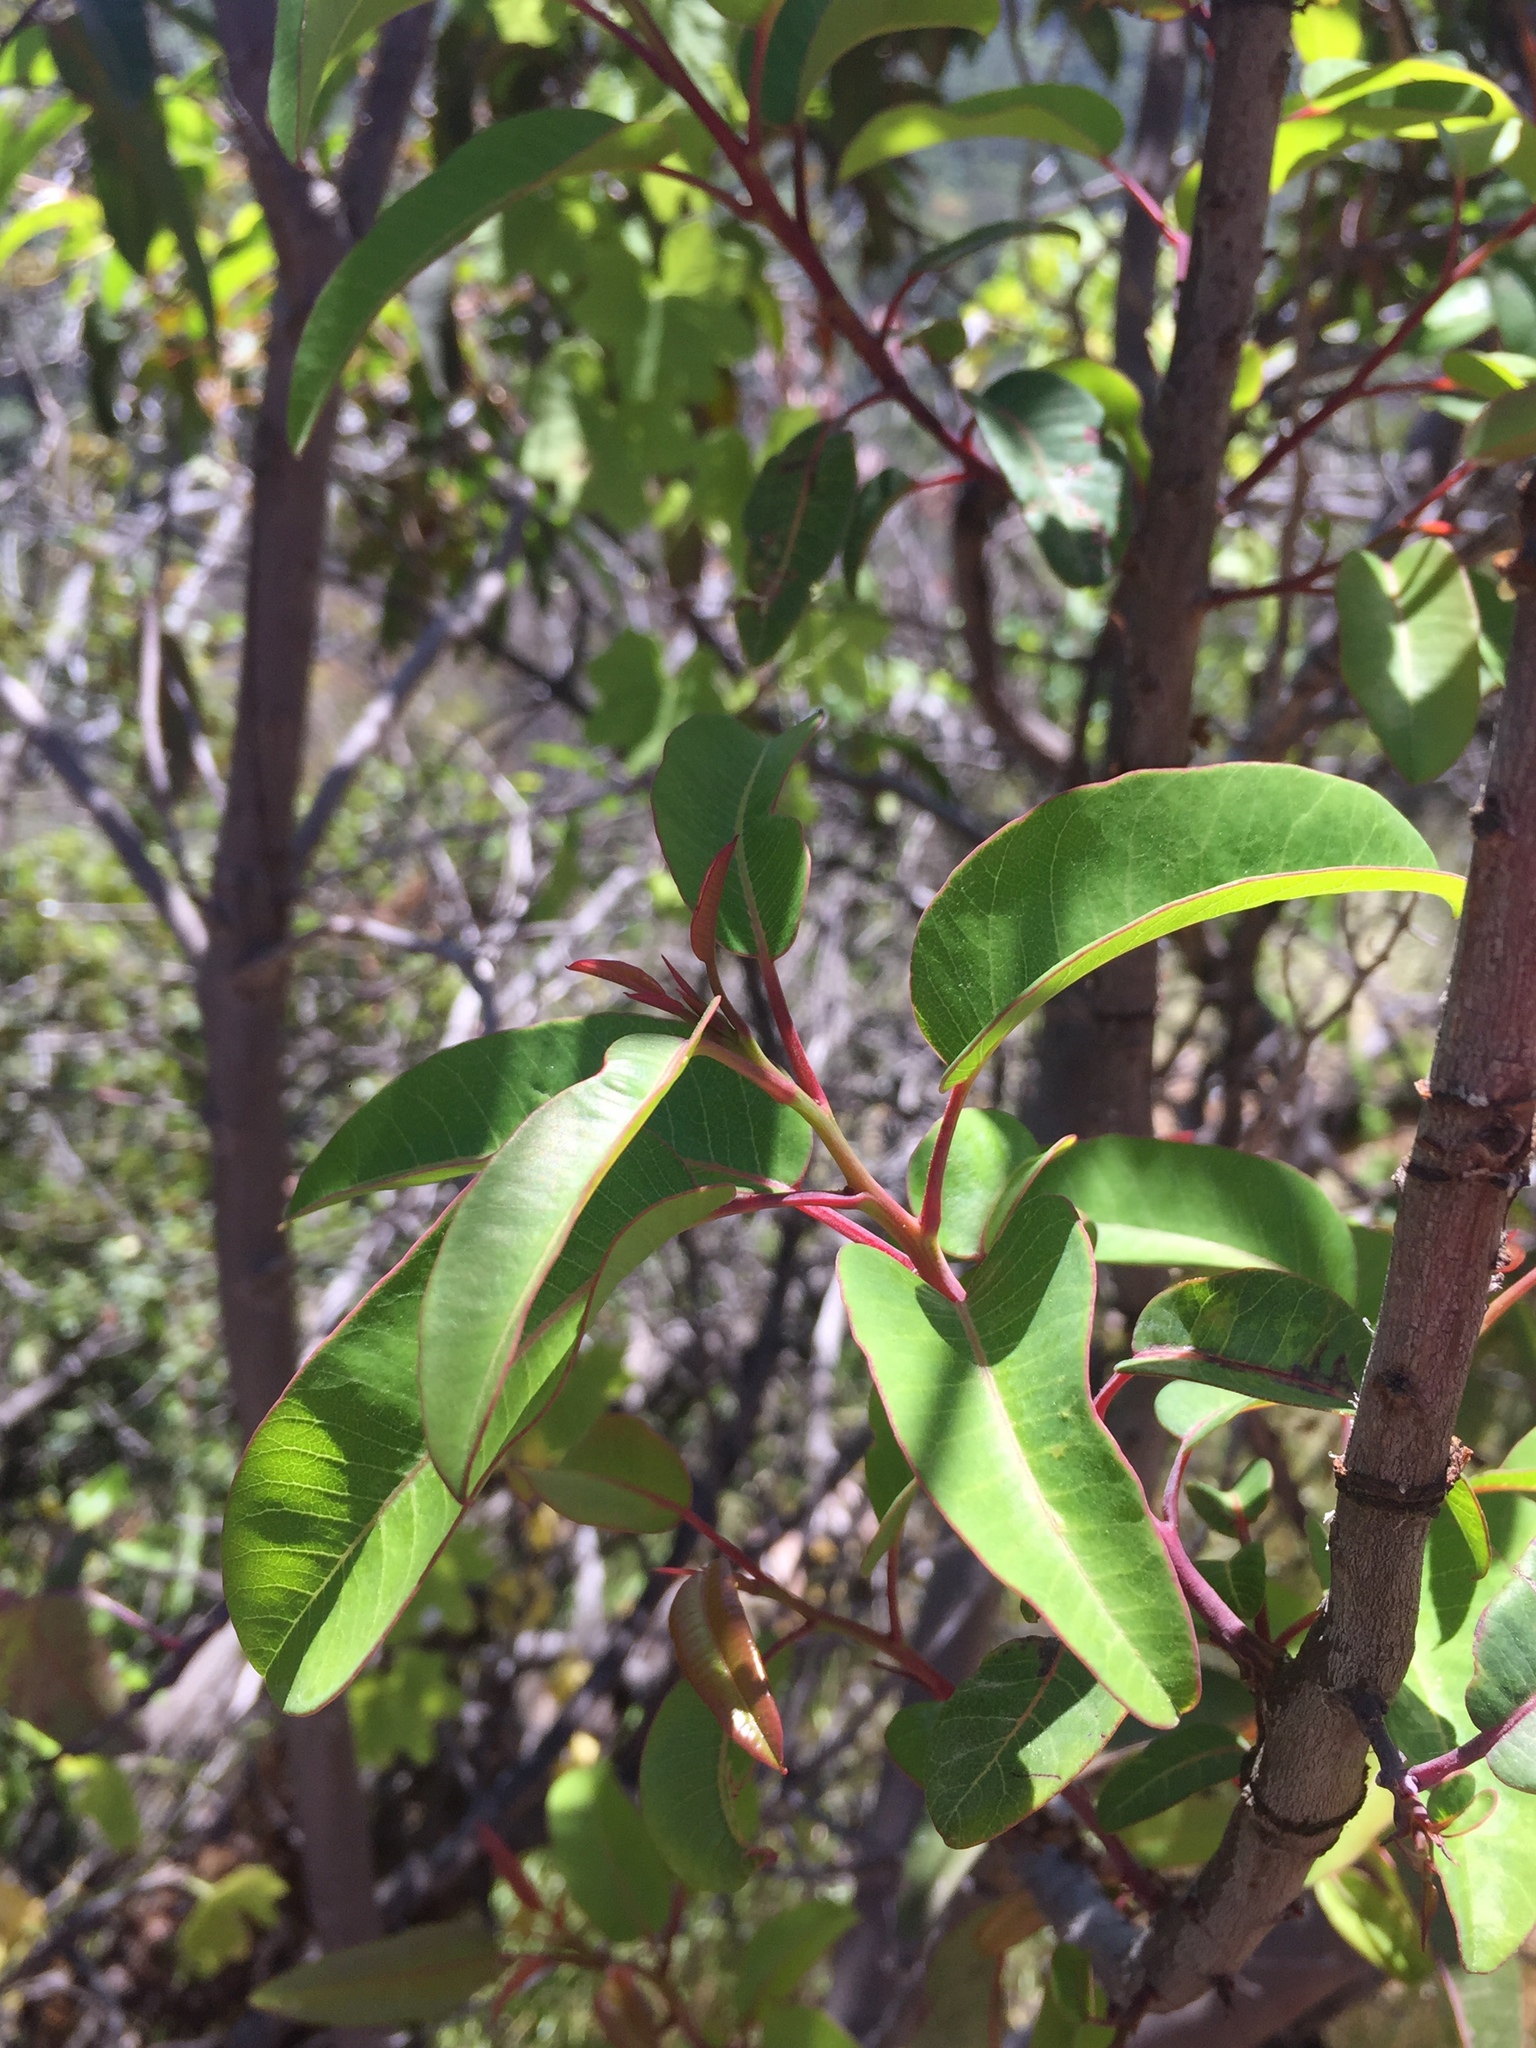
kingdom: Plantae
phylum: Tracheophyta
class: Magnoliopsida
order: Sapindales
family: Anacardiaceae
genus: Malosma
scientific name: Malosma laurina
